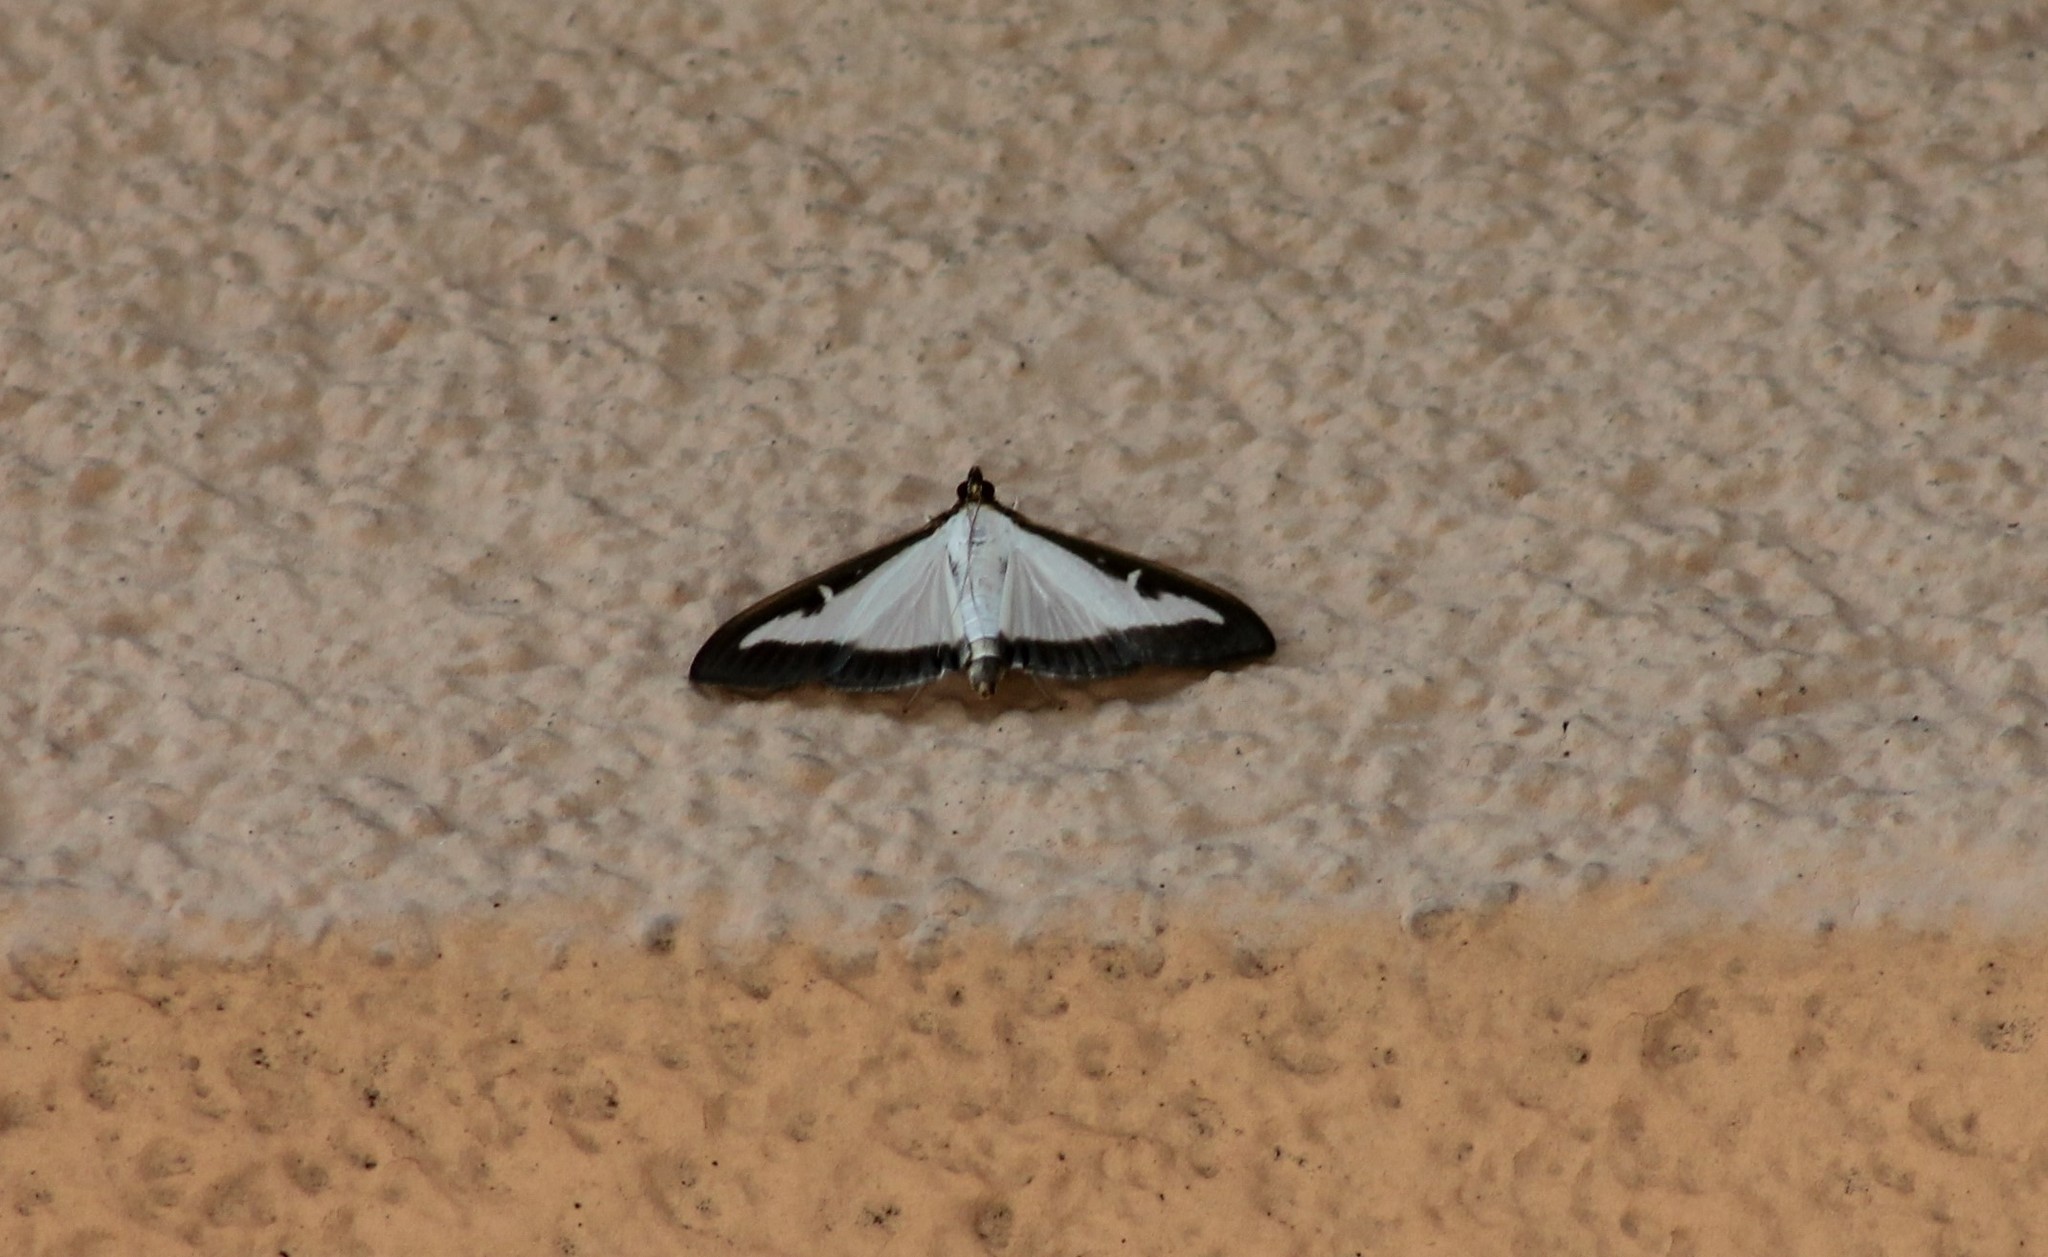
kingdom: Animalia
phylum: Arthropoda
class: Insecta
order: Lepidoptera
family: Crambidae
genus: Cydalima
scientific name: Cydalima perspectalis
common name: Box tree moth
